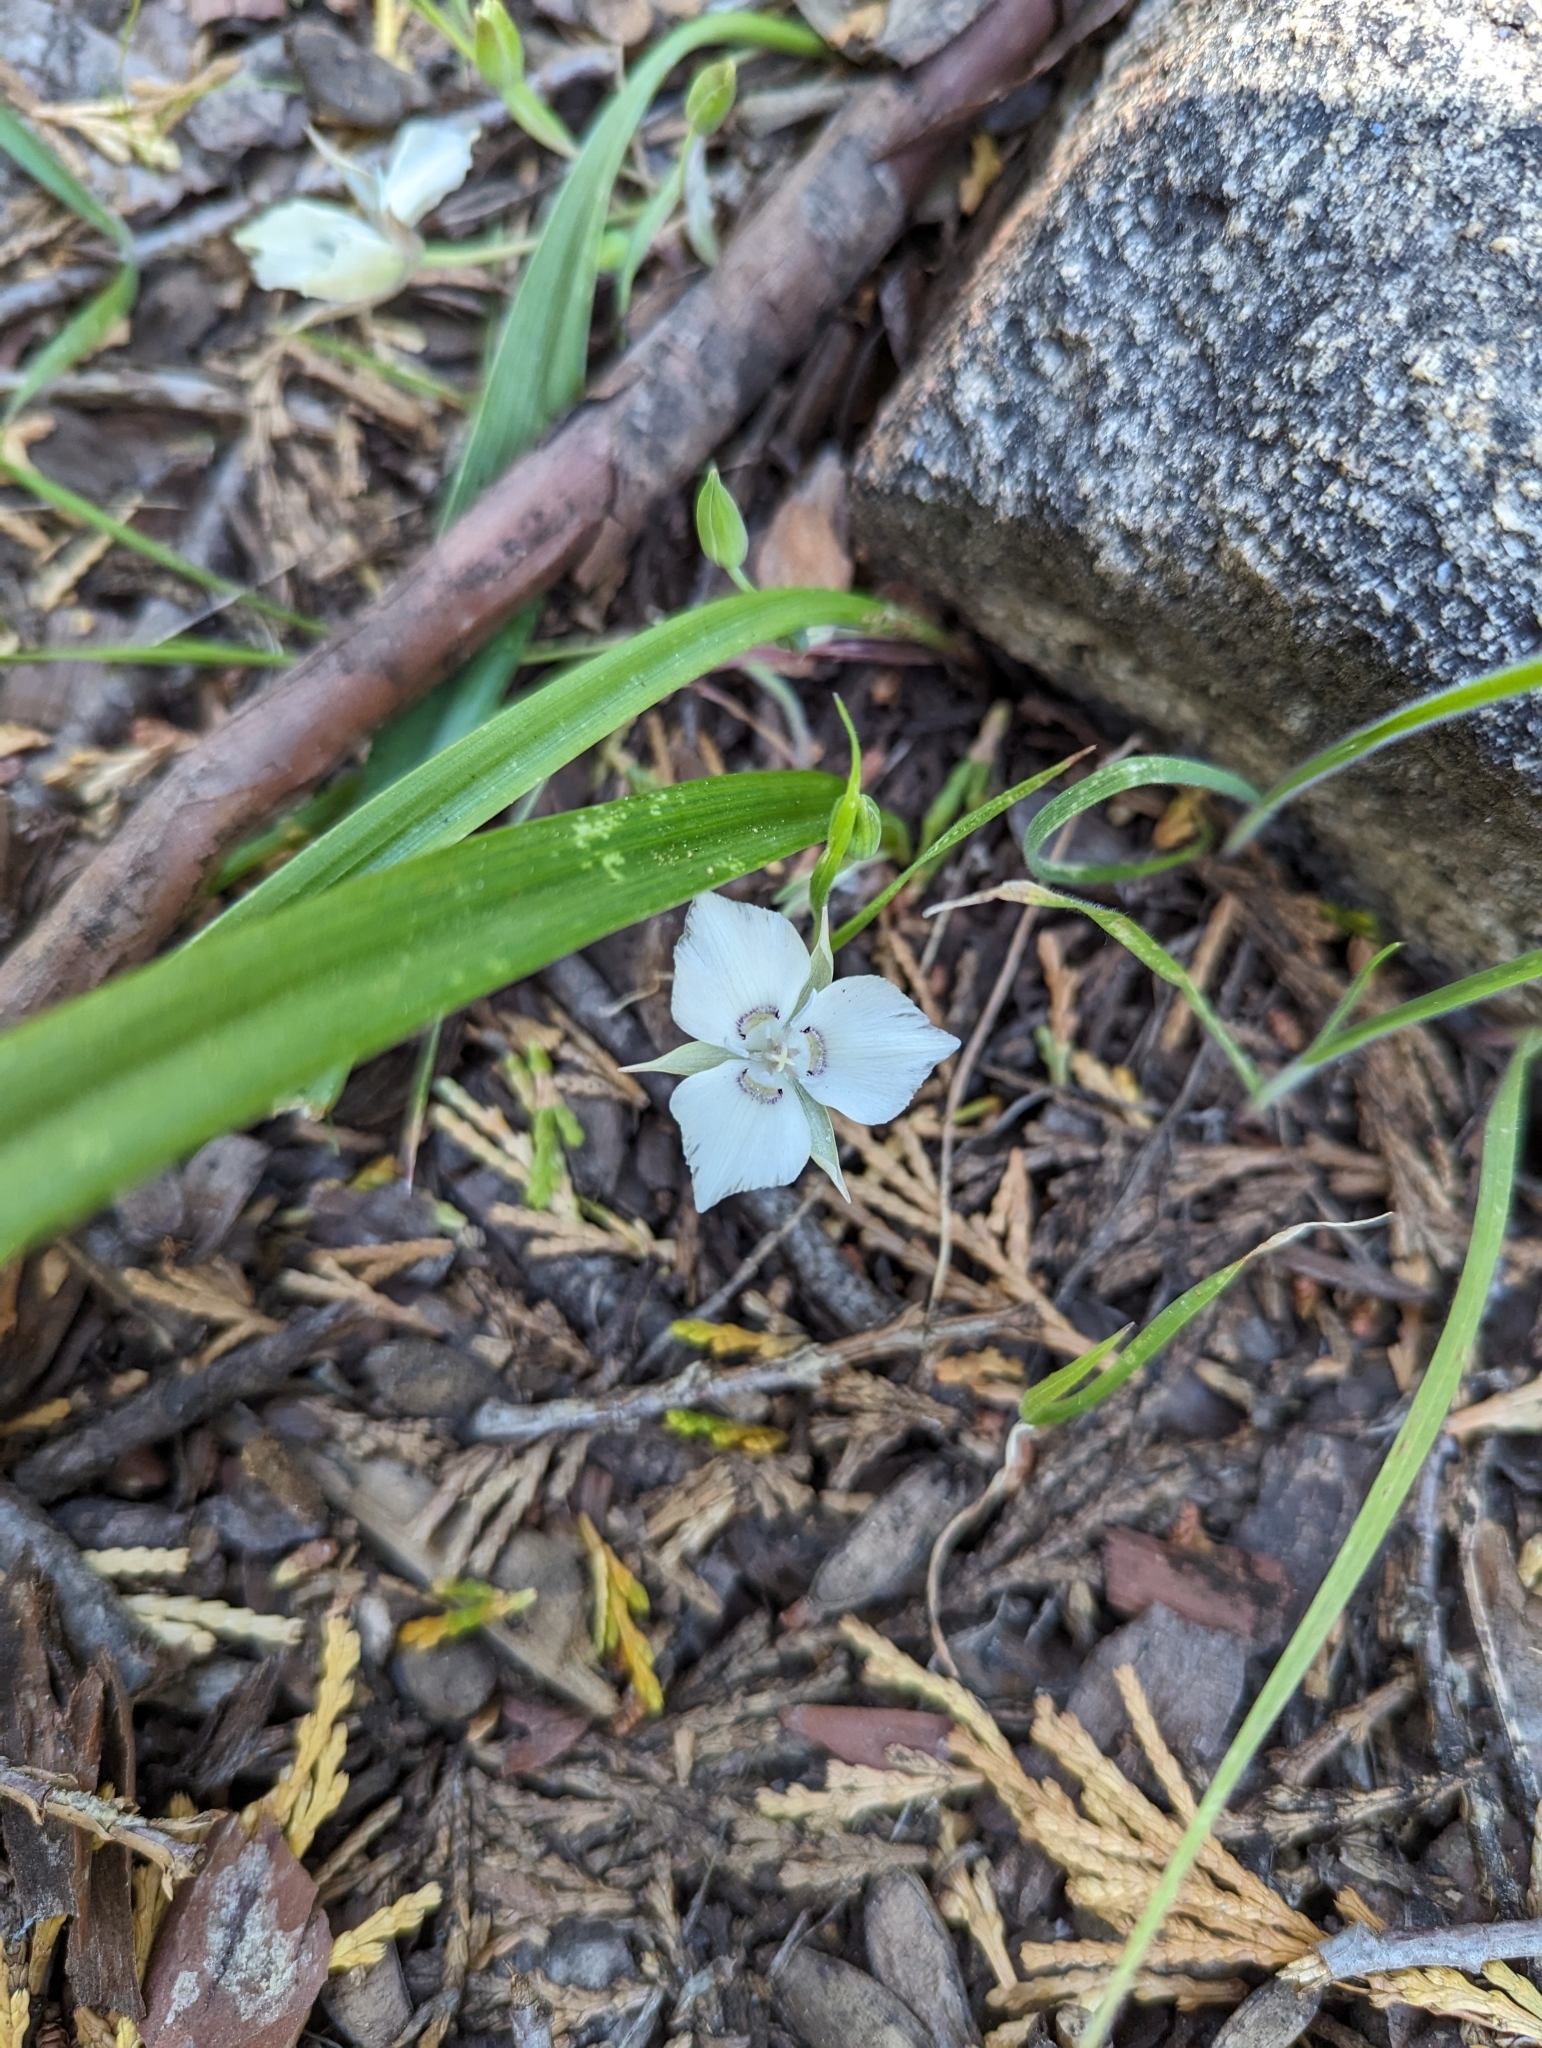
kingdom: Plantae
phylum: Tracheophyta
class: Liliopsida
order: Liliales
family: Liliaceae
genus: Calochortus
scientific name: Calochortus minimus
